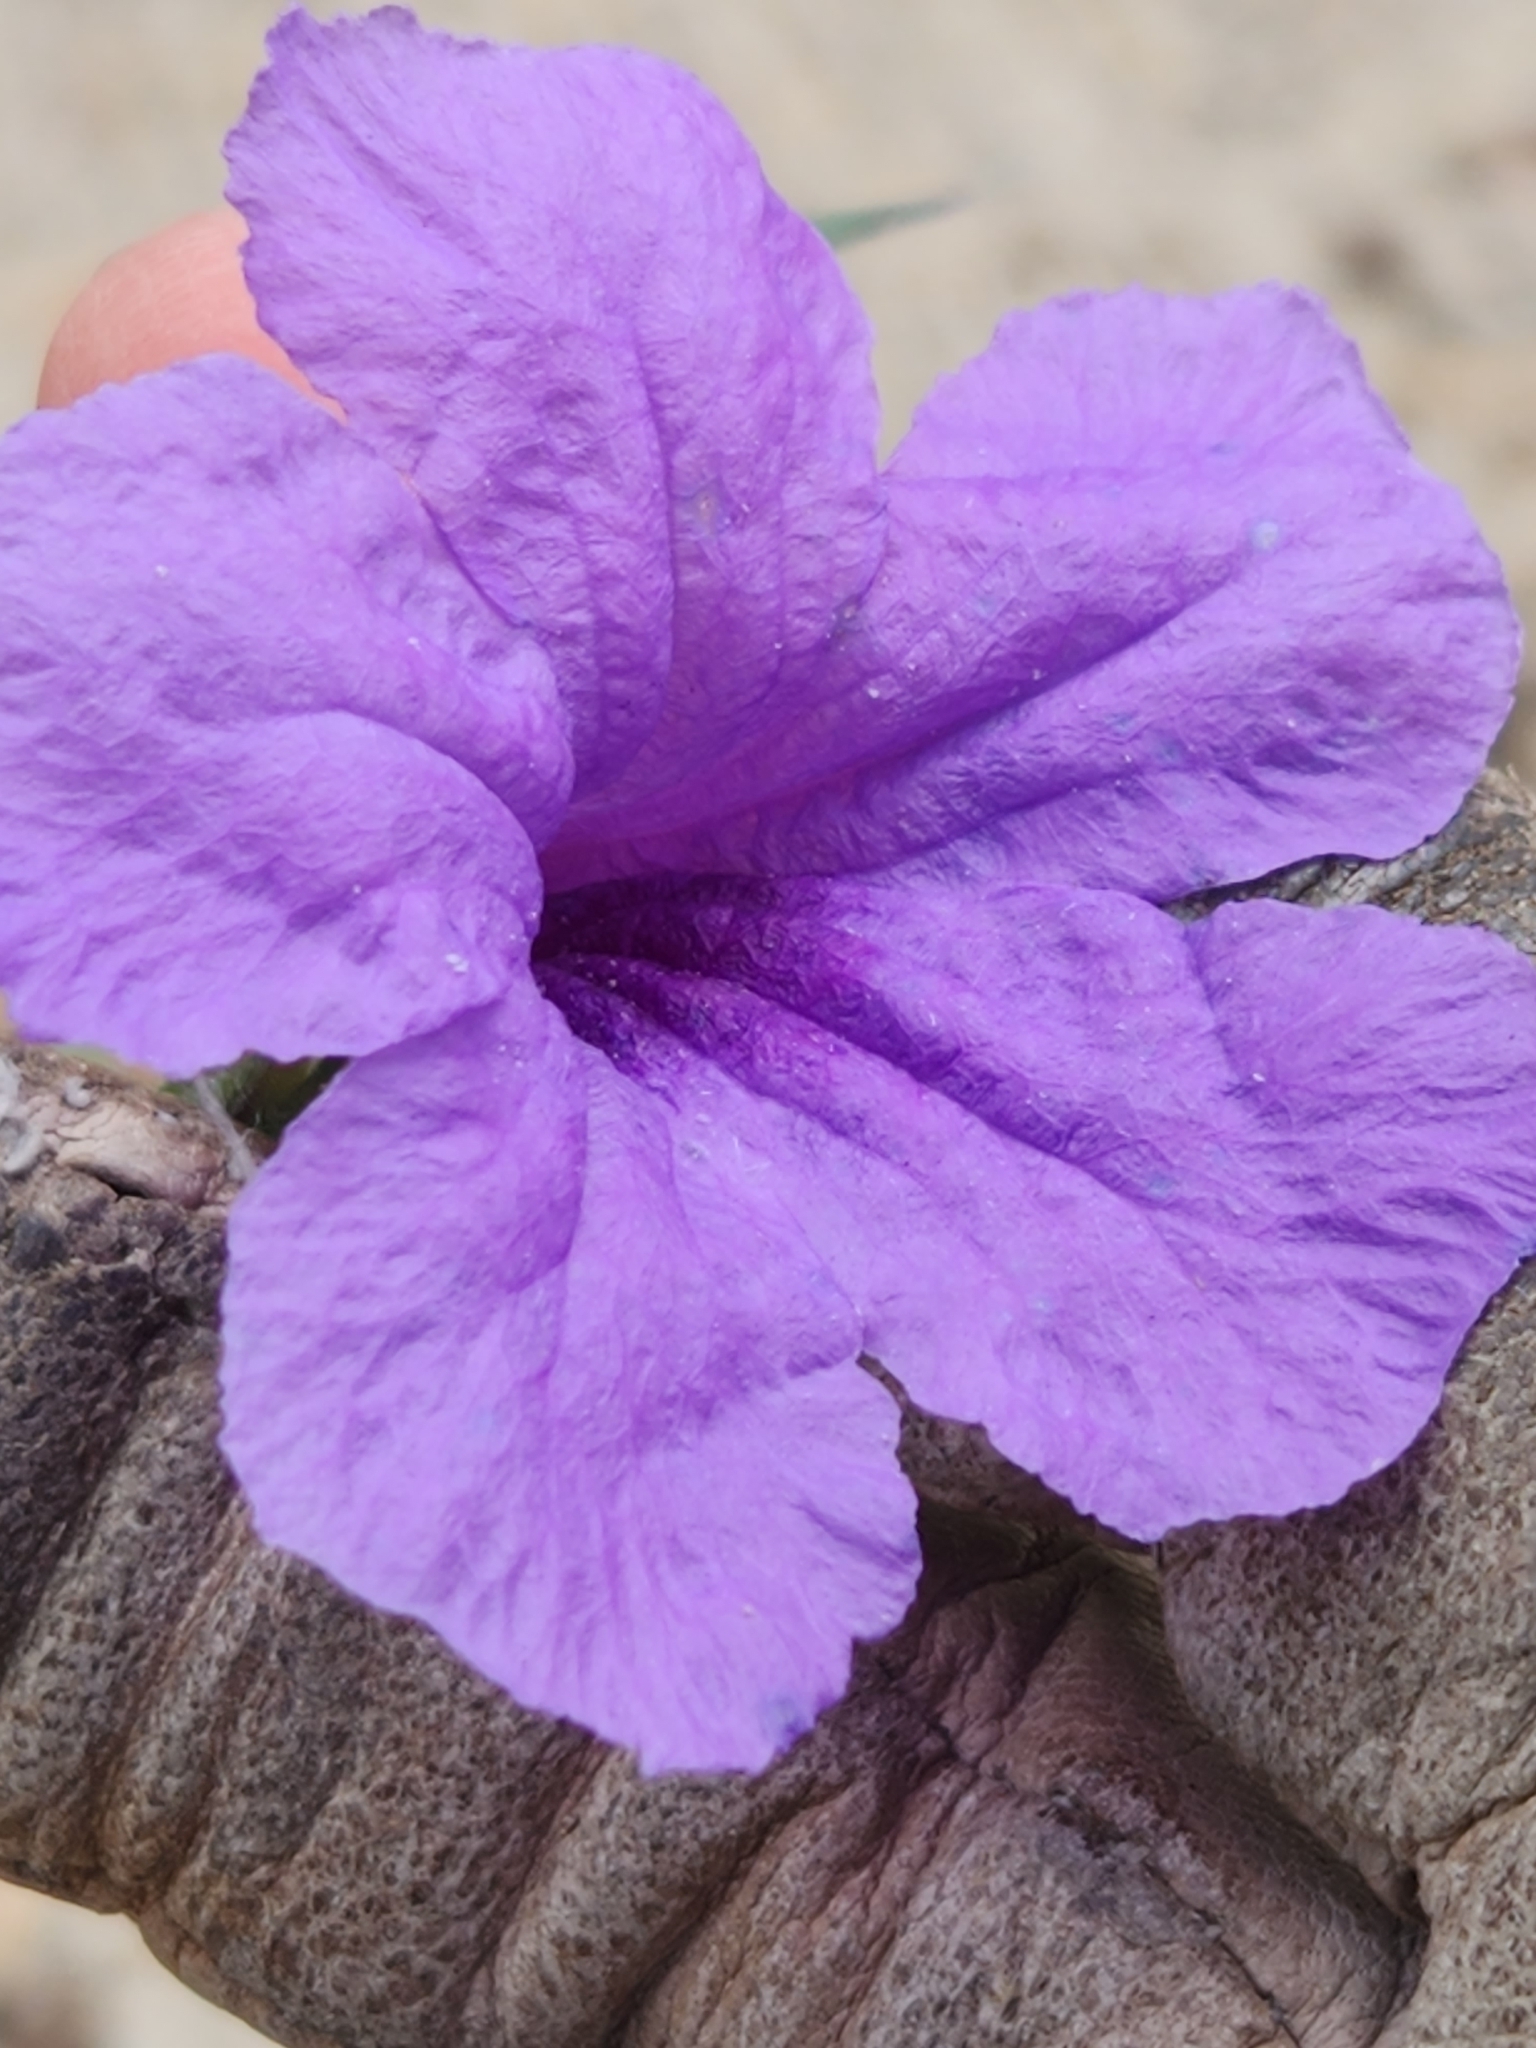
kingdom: Plantae
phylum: Tracheophyta
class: Magnoliopsida
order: Lamiales
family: Acanthaceae
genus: Ruellia
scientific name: Ruellia simplex
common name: Softseed wild petunia
